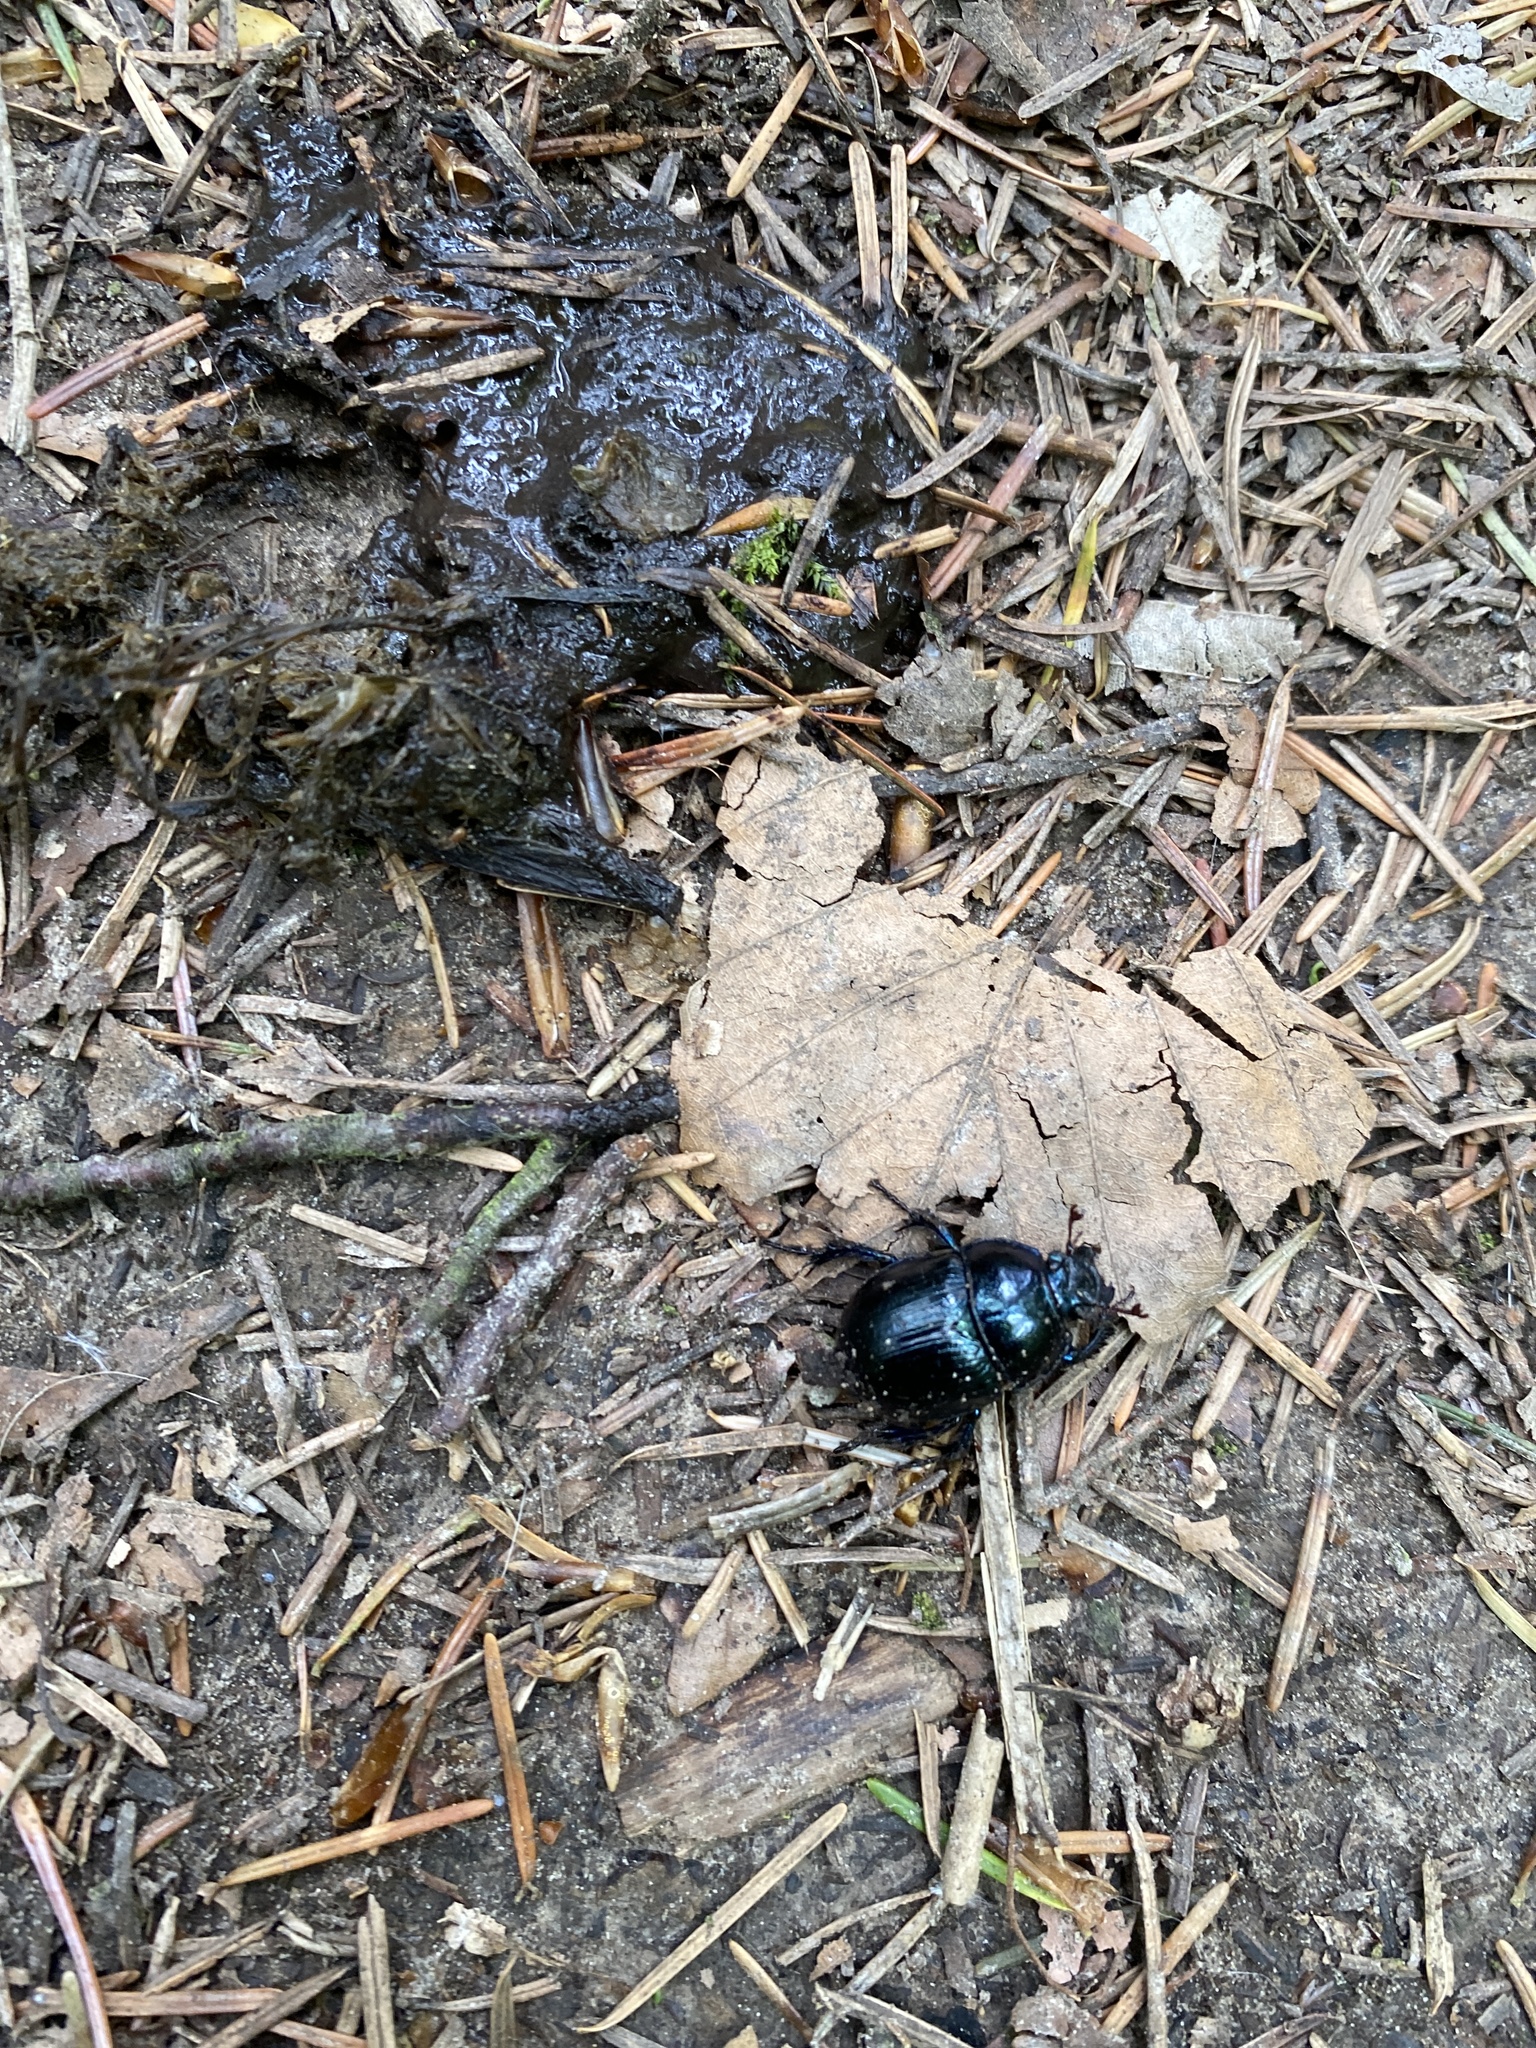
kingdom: Animalia
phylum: Arthropoda
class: Insecta
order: Coleoptera
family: Geotrupidae
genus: Anoplotrupes
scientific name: Anoplotrupes stercorosus
